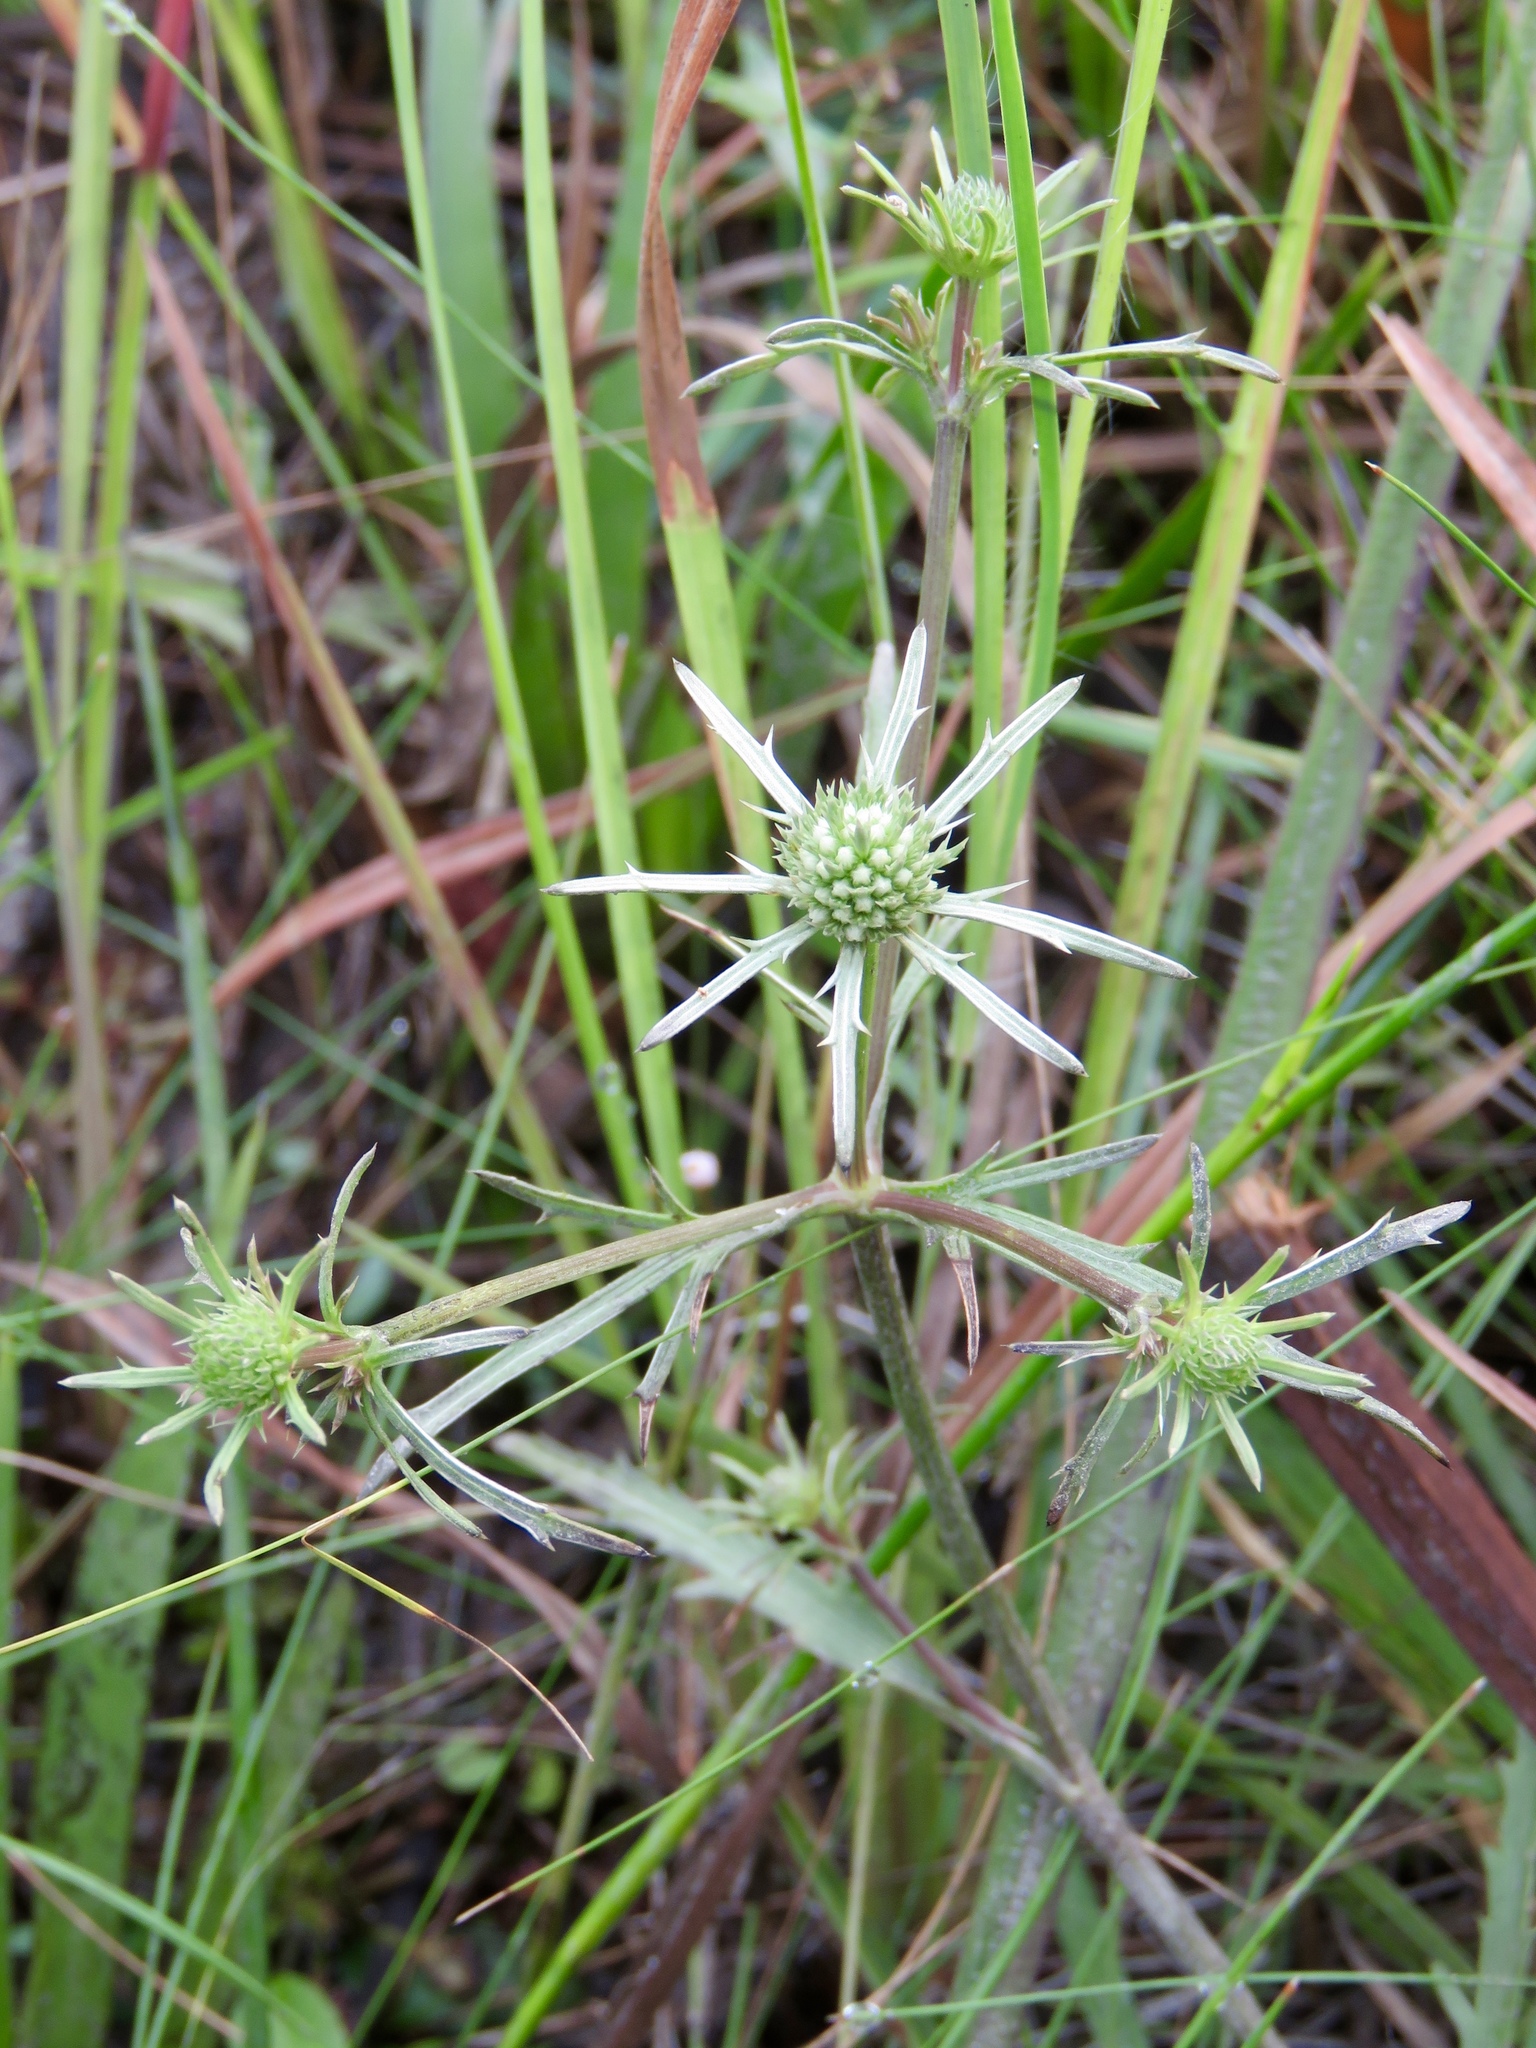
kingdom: Plantae
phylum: Tracheophyta
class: Magnoliopsida
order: Apiales
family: Apiaceae
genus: Eryngium
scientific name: Eryngium integrifolium
